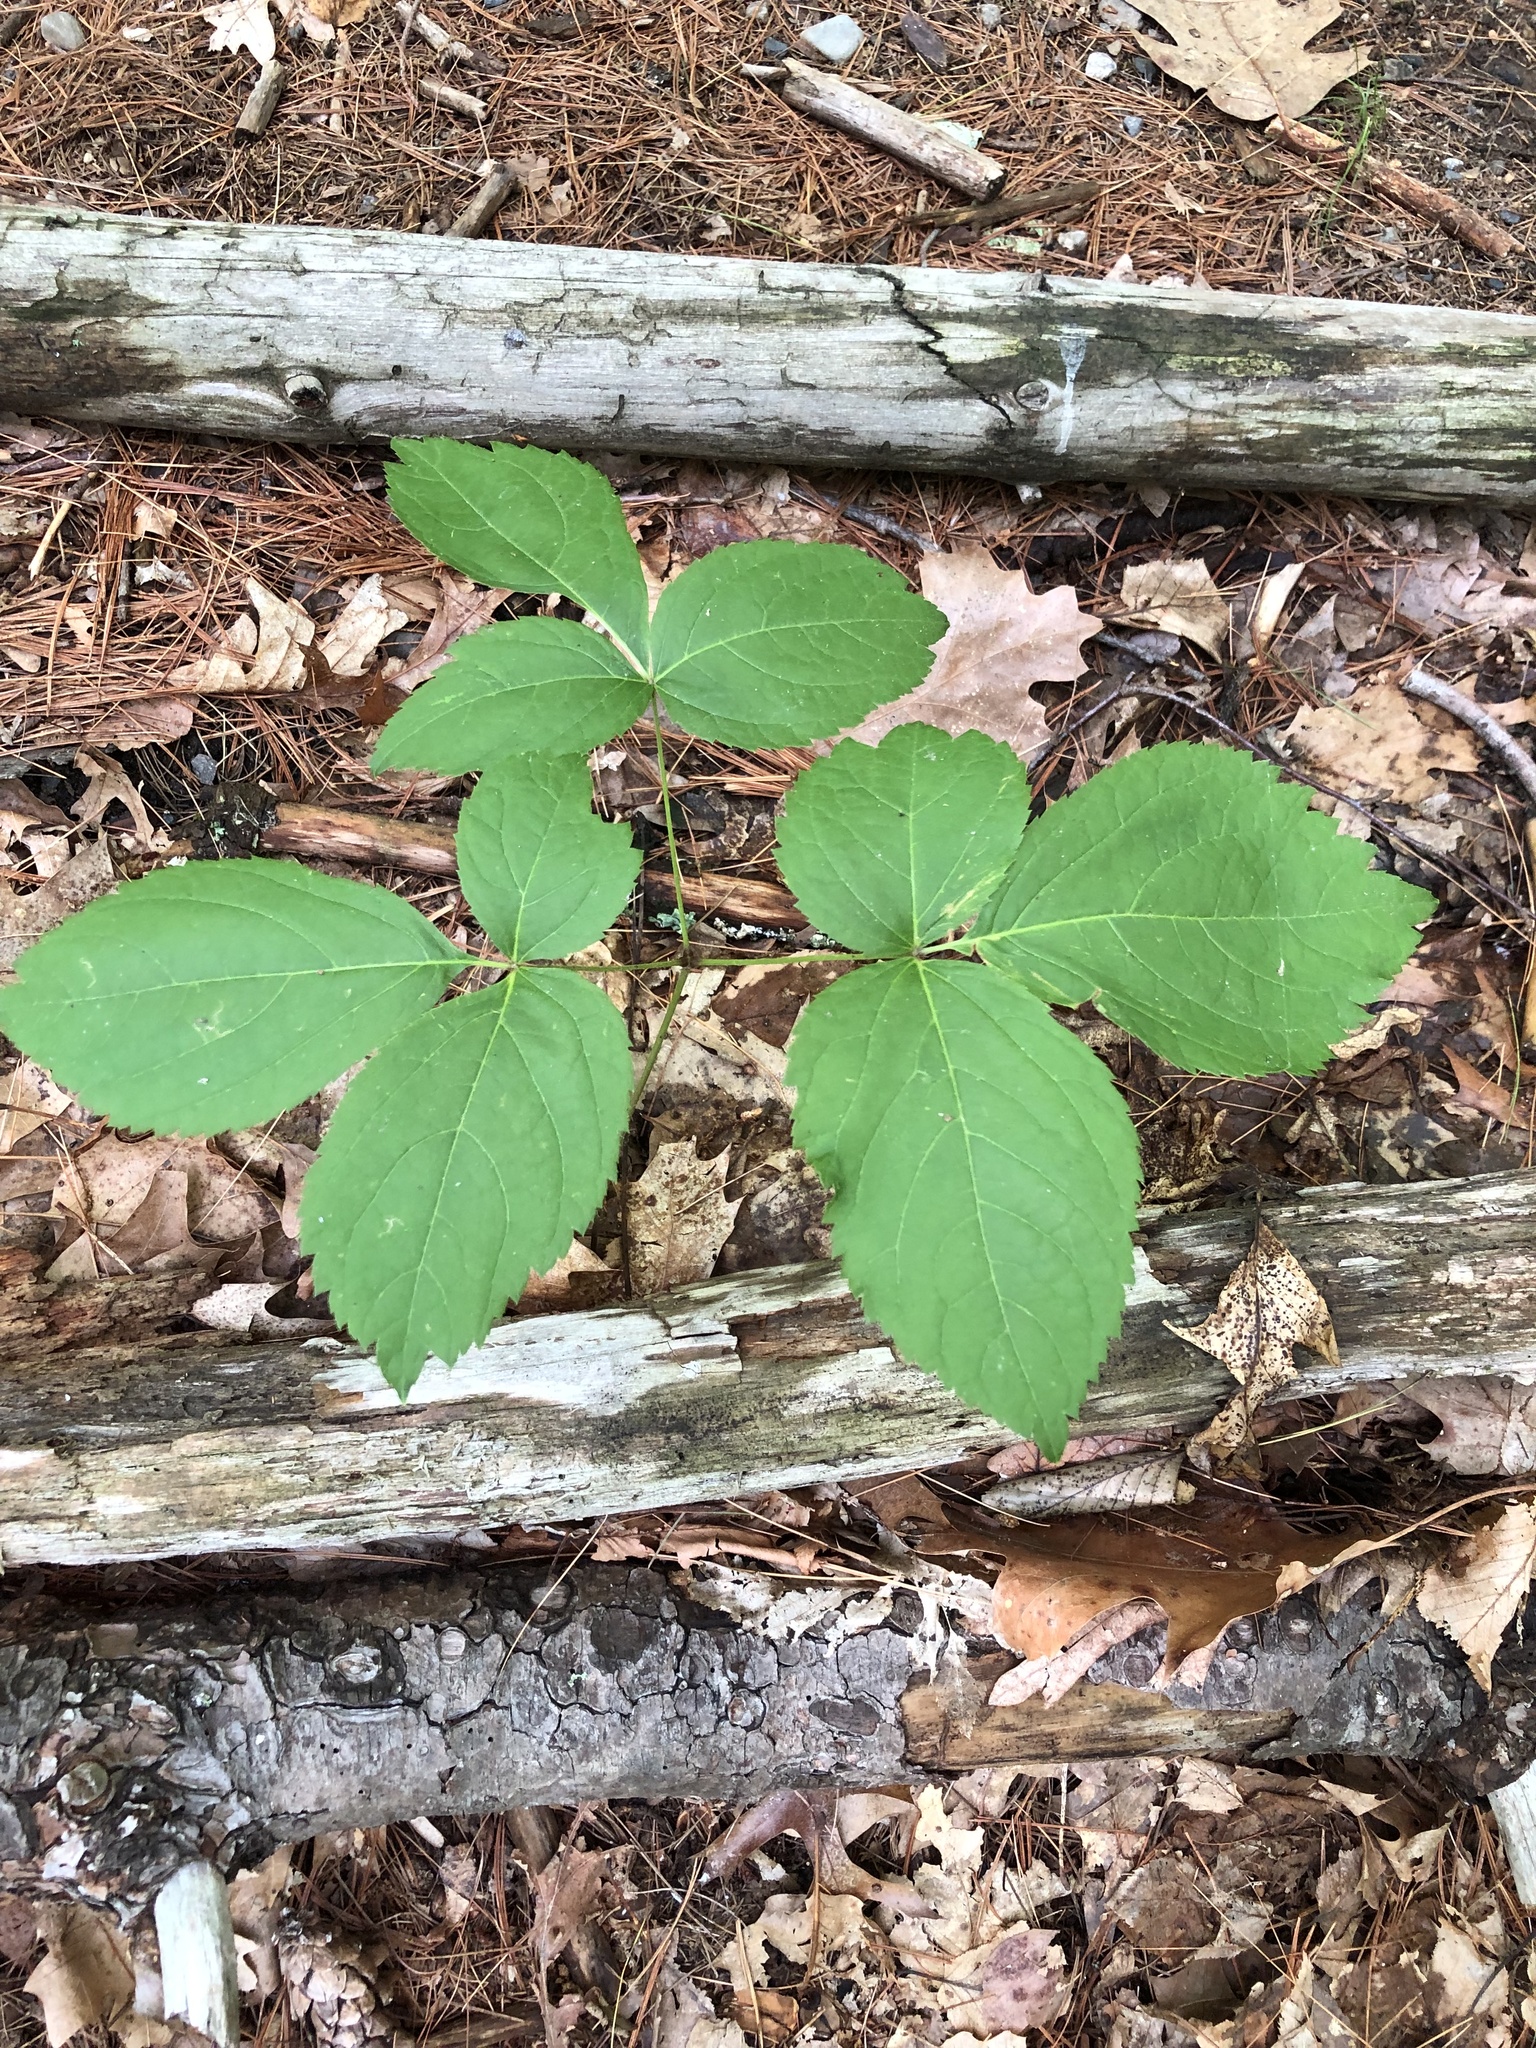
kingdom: Plantae
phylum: Tracheophyta
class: Magnoliopsida
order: Apiales
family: Araliaceae
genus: Aralia
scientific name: Aralia nudicaulis
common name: Wild sarsaparilla
